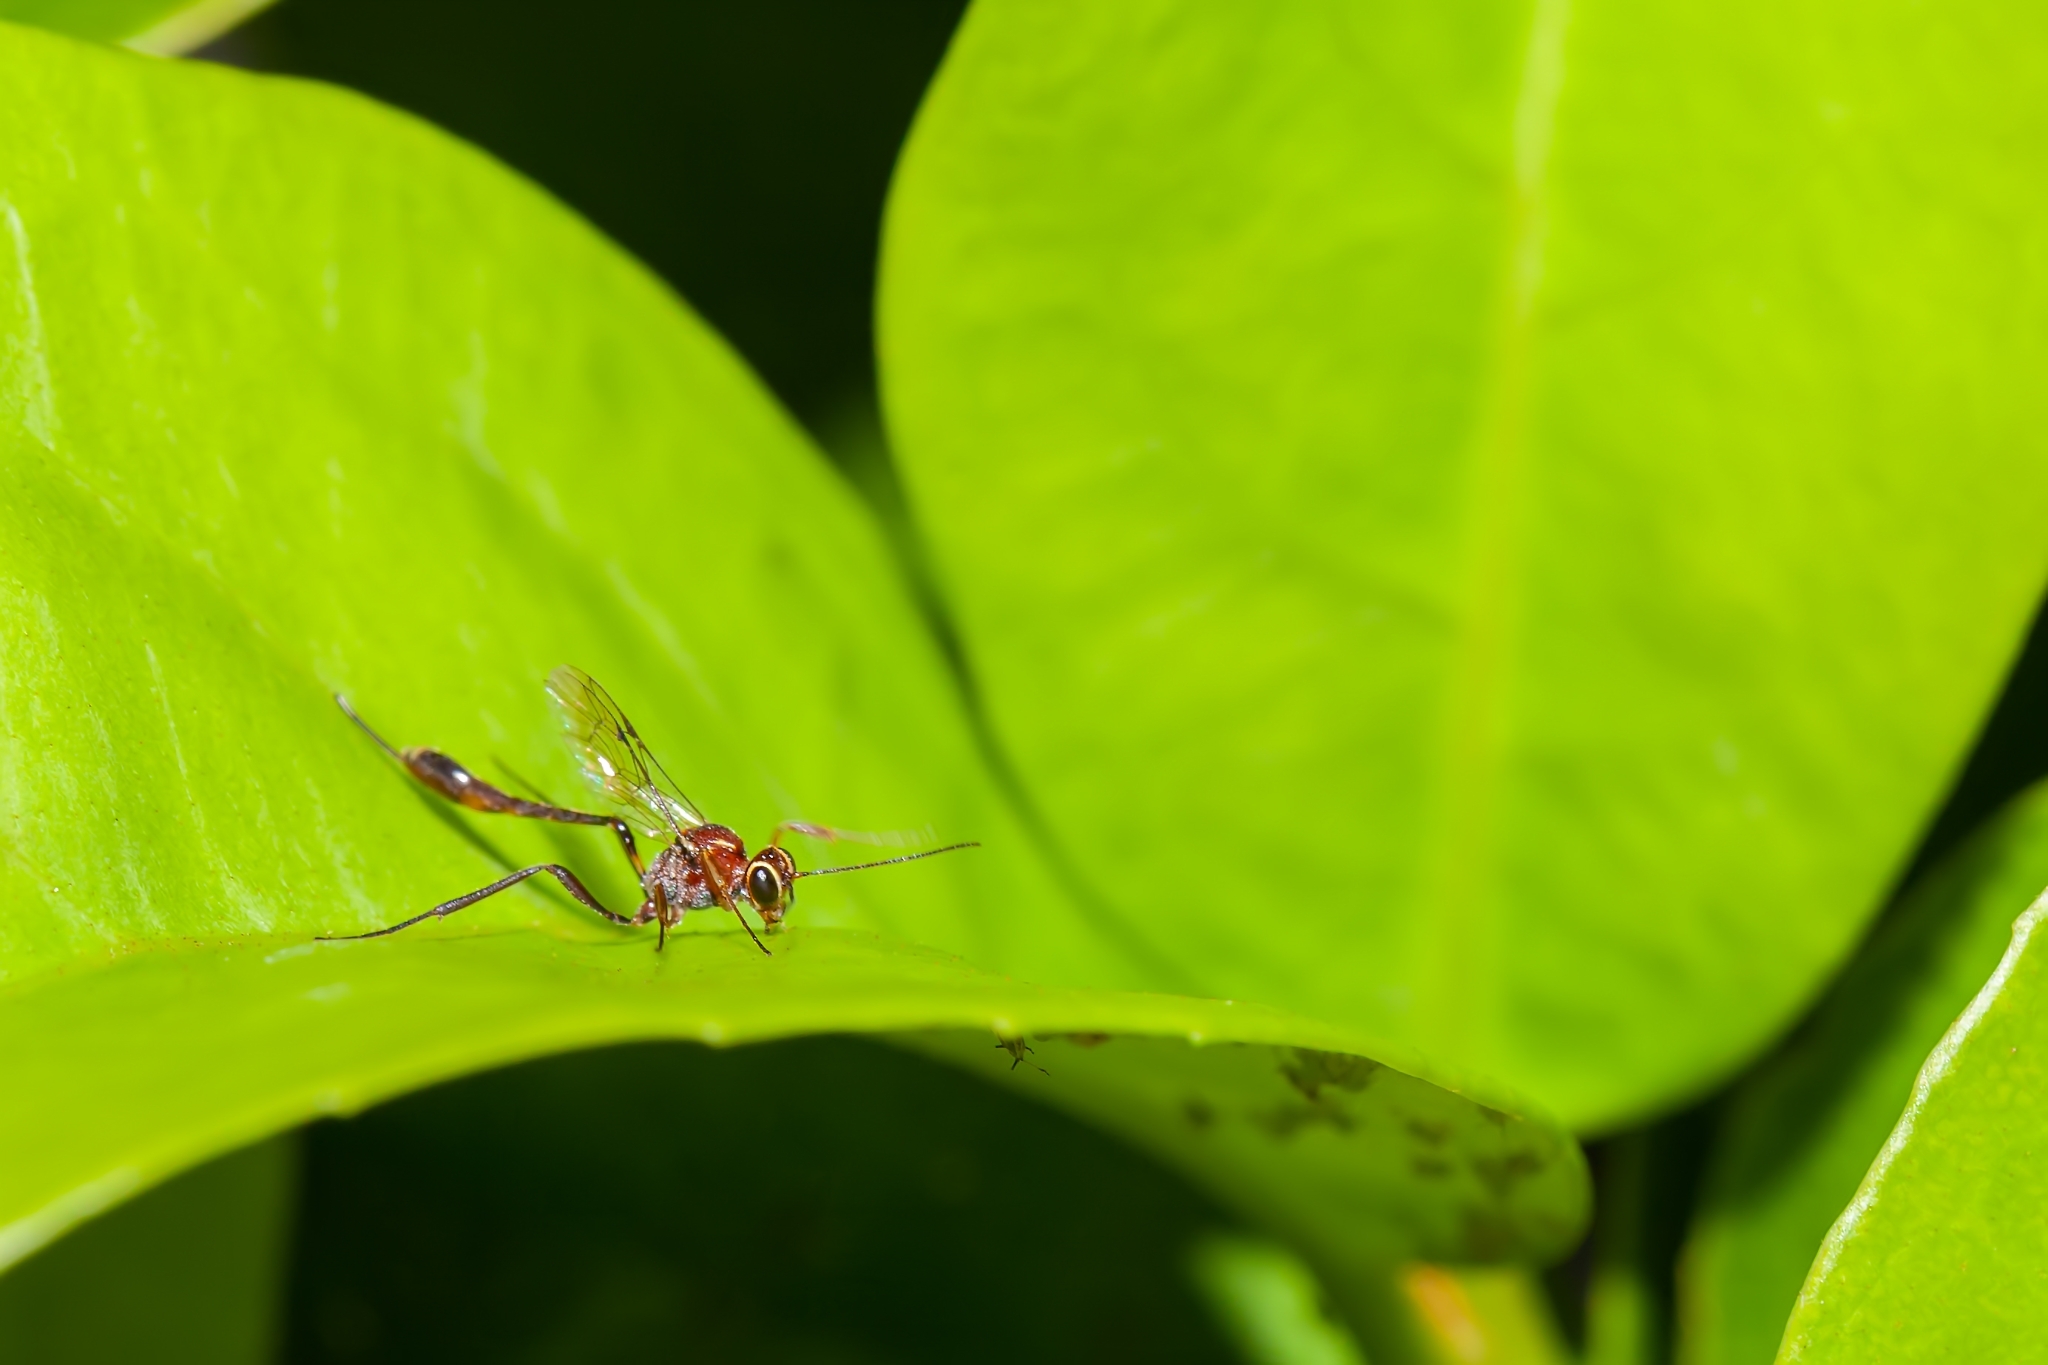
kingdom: Animalia
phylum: Arthropoda
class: Insecta
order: Hymenoptera
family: Ichneumonidae
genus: Anomalon
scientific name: Anomalon
